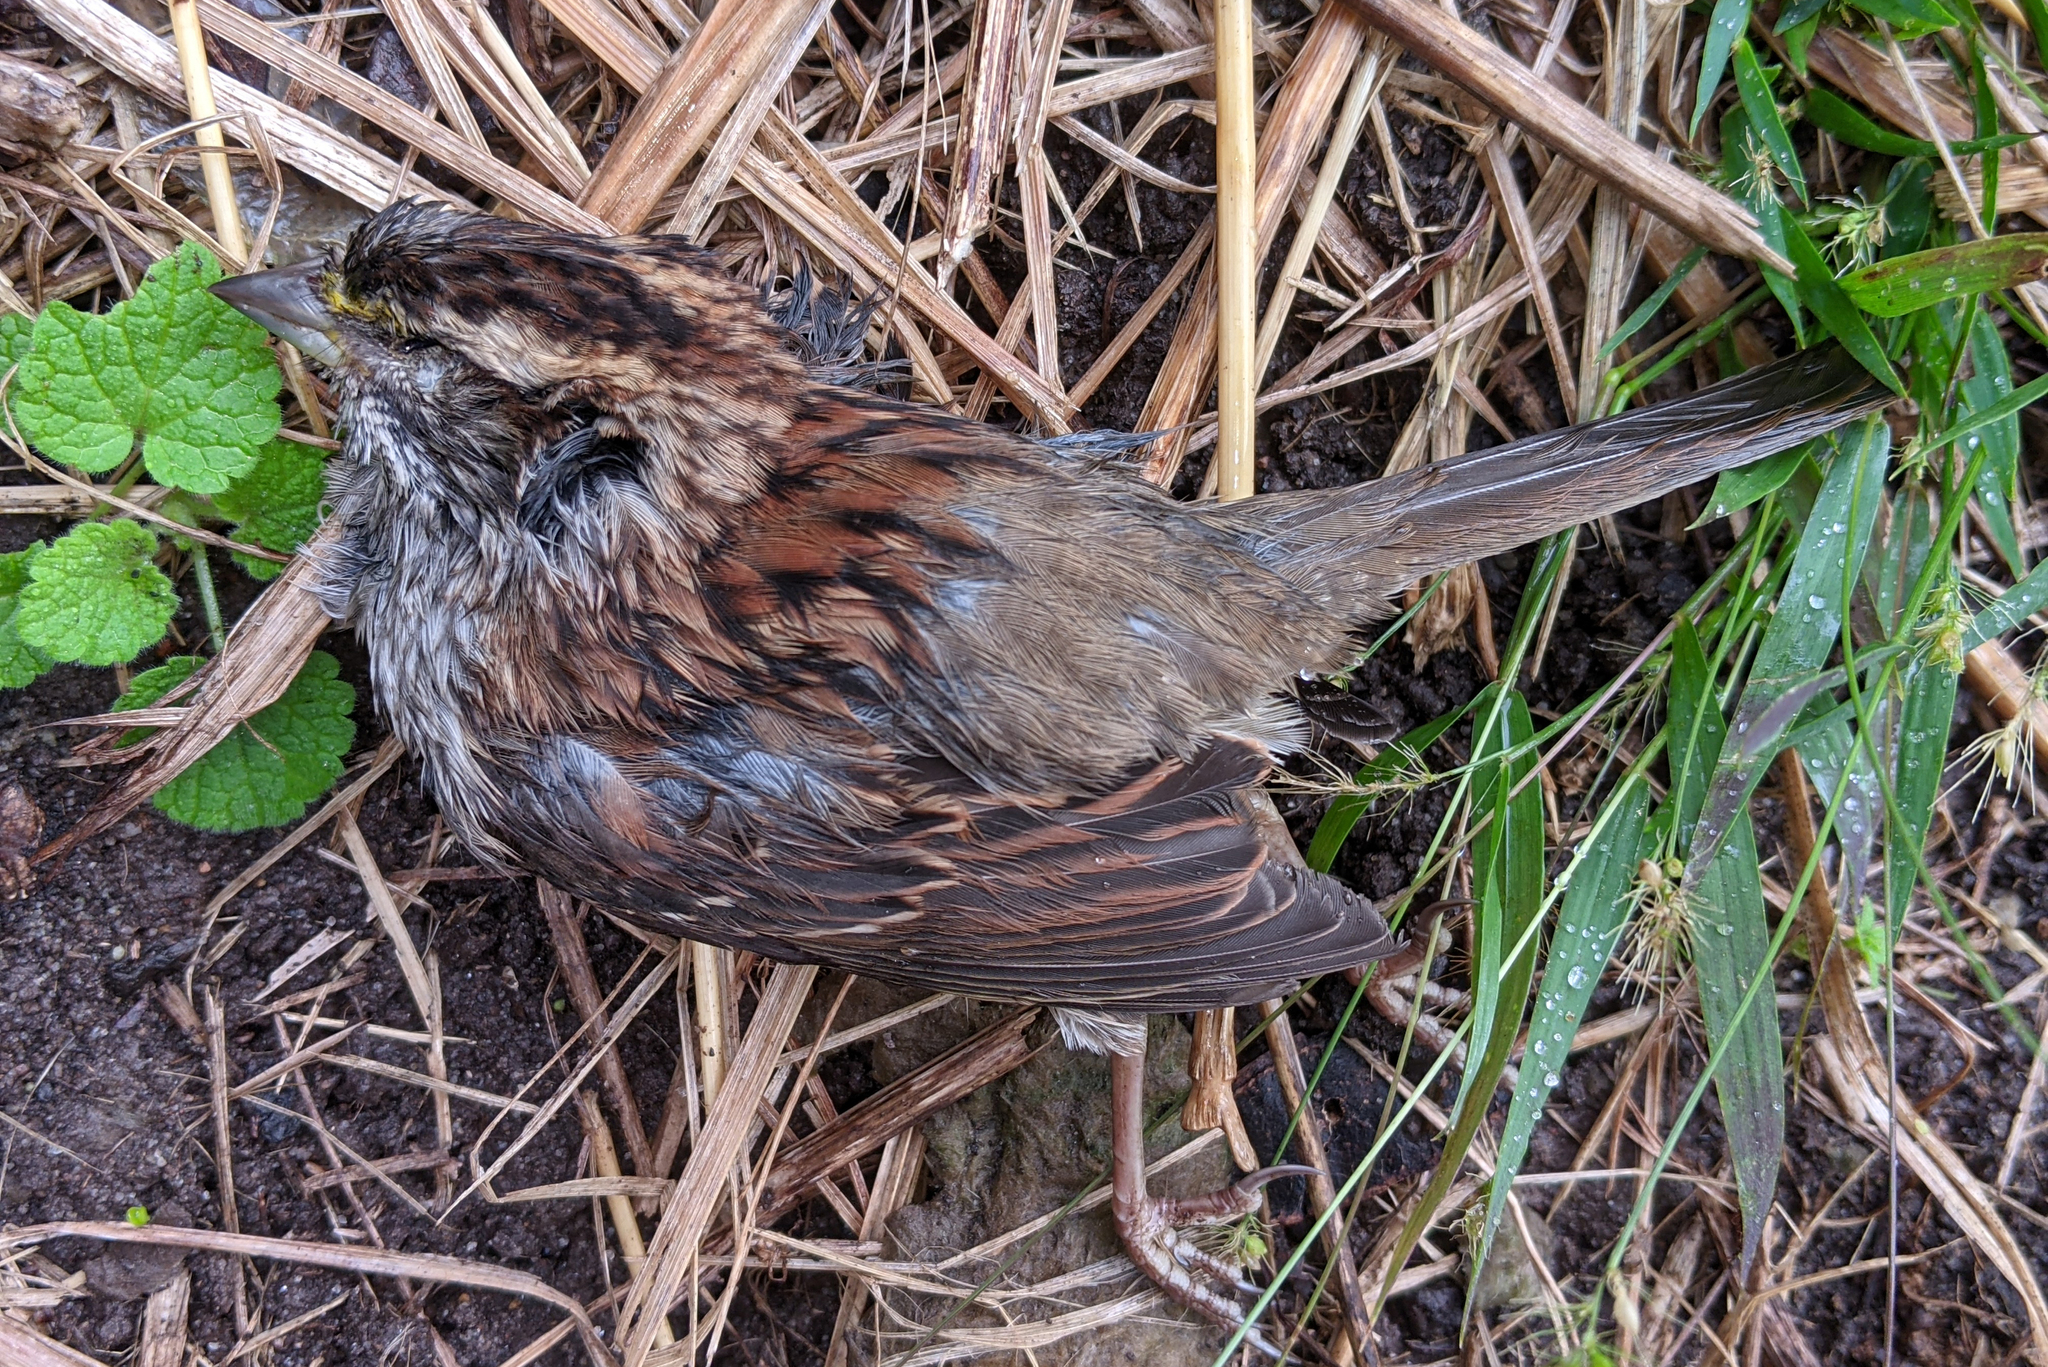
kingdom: Animalia
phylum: Chordata
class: Aves
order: Passeriformes
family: Passerellidae
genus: Zonotrichia
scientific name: Zonotrichia albicollis
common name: White-throated sparrow
